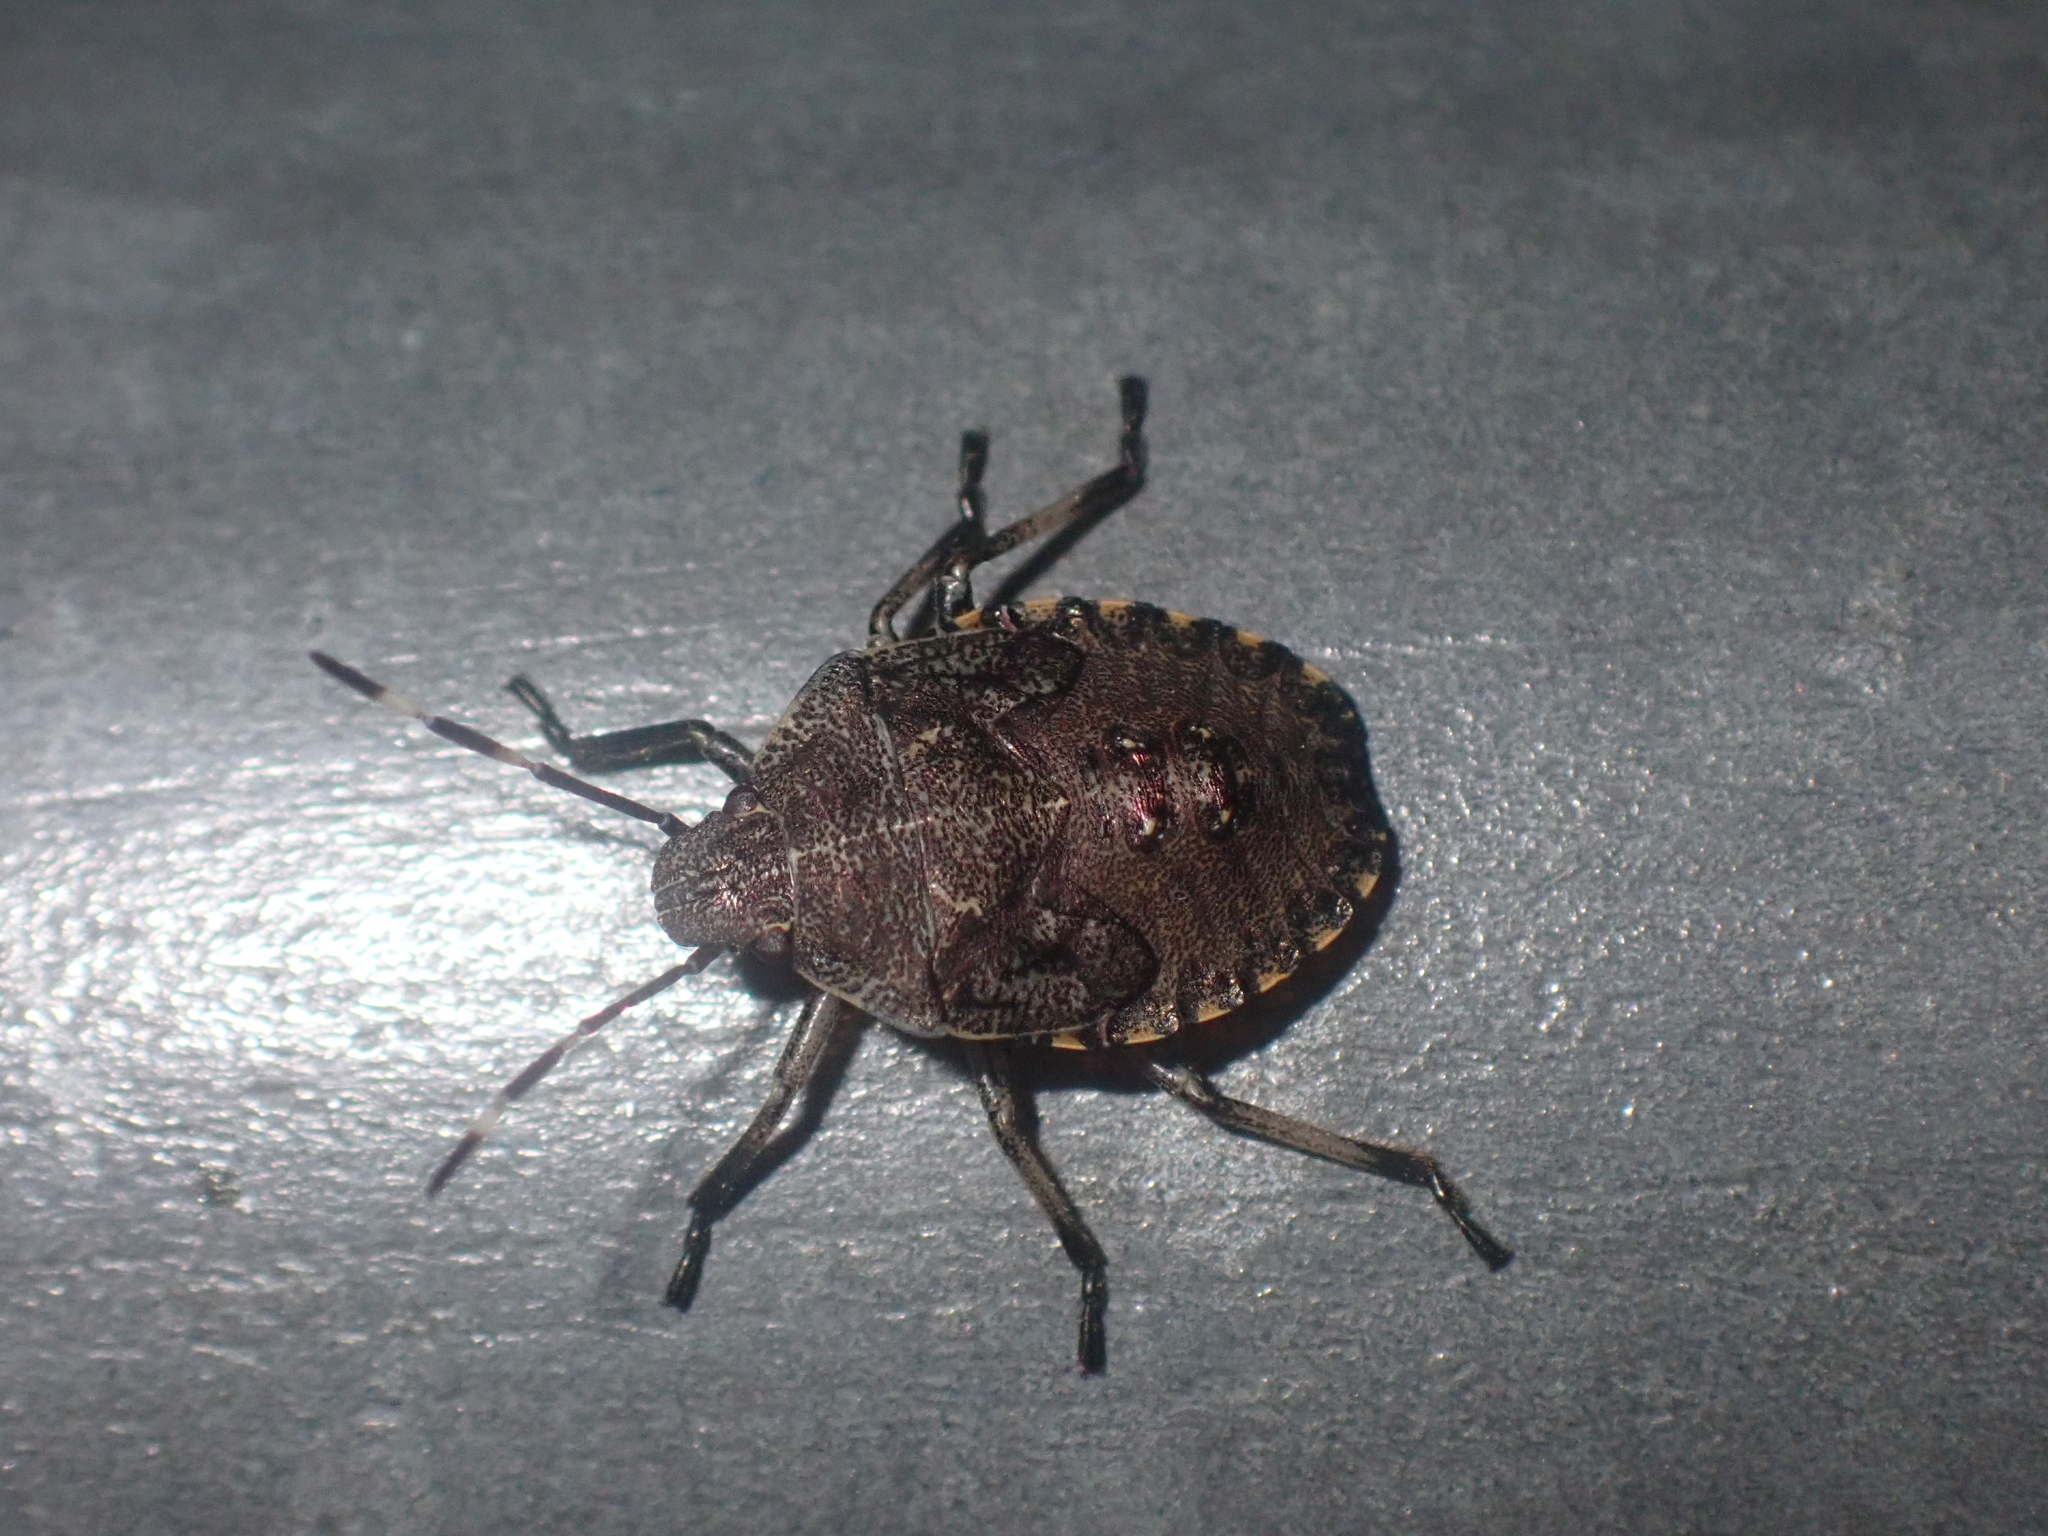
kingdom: Animalia
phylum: Arthropoda
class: Insecta
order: Hemiptera
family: Pentatomidae
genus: Rhaphigaster
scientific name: Rhaphigaster nebulosa
